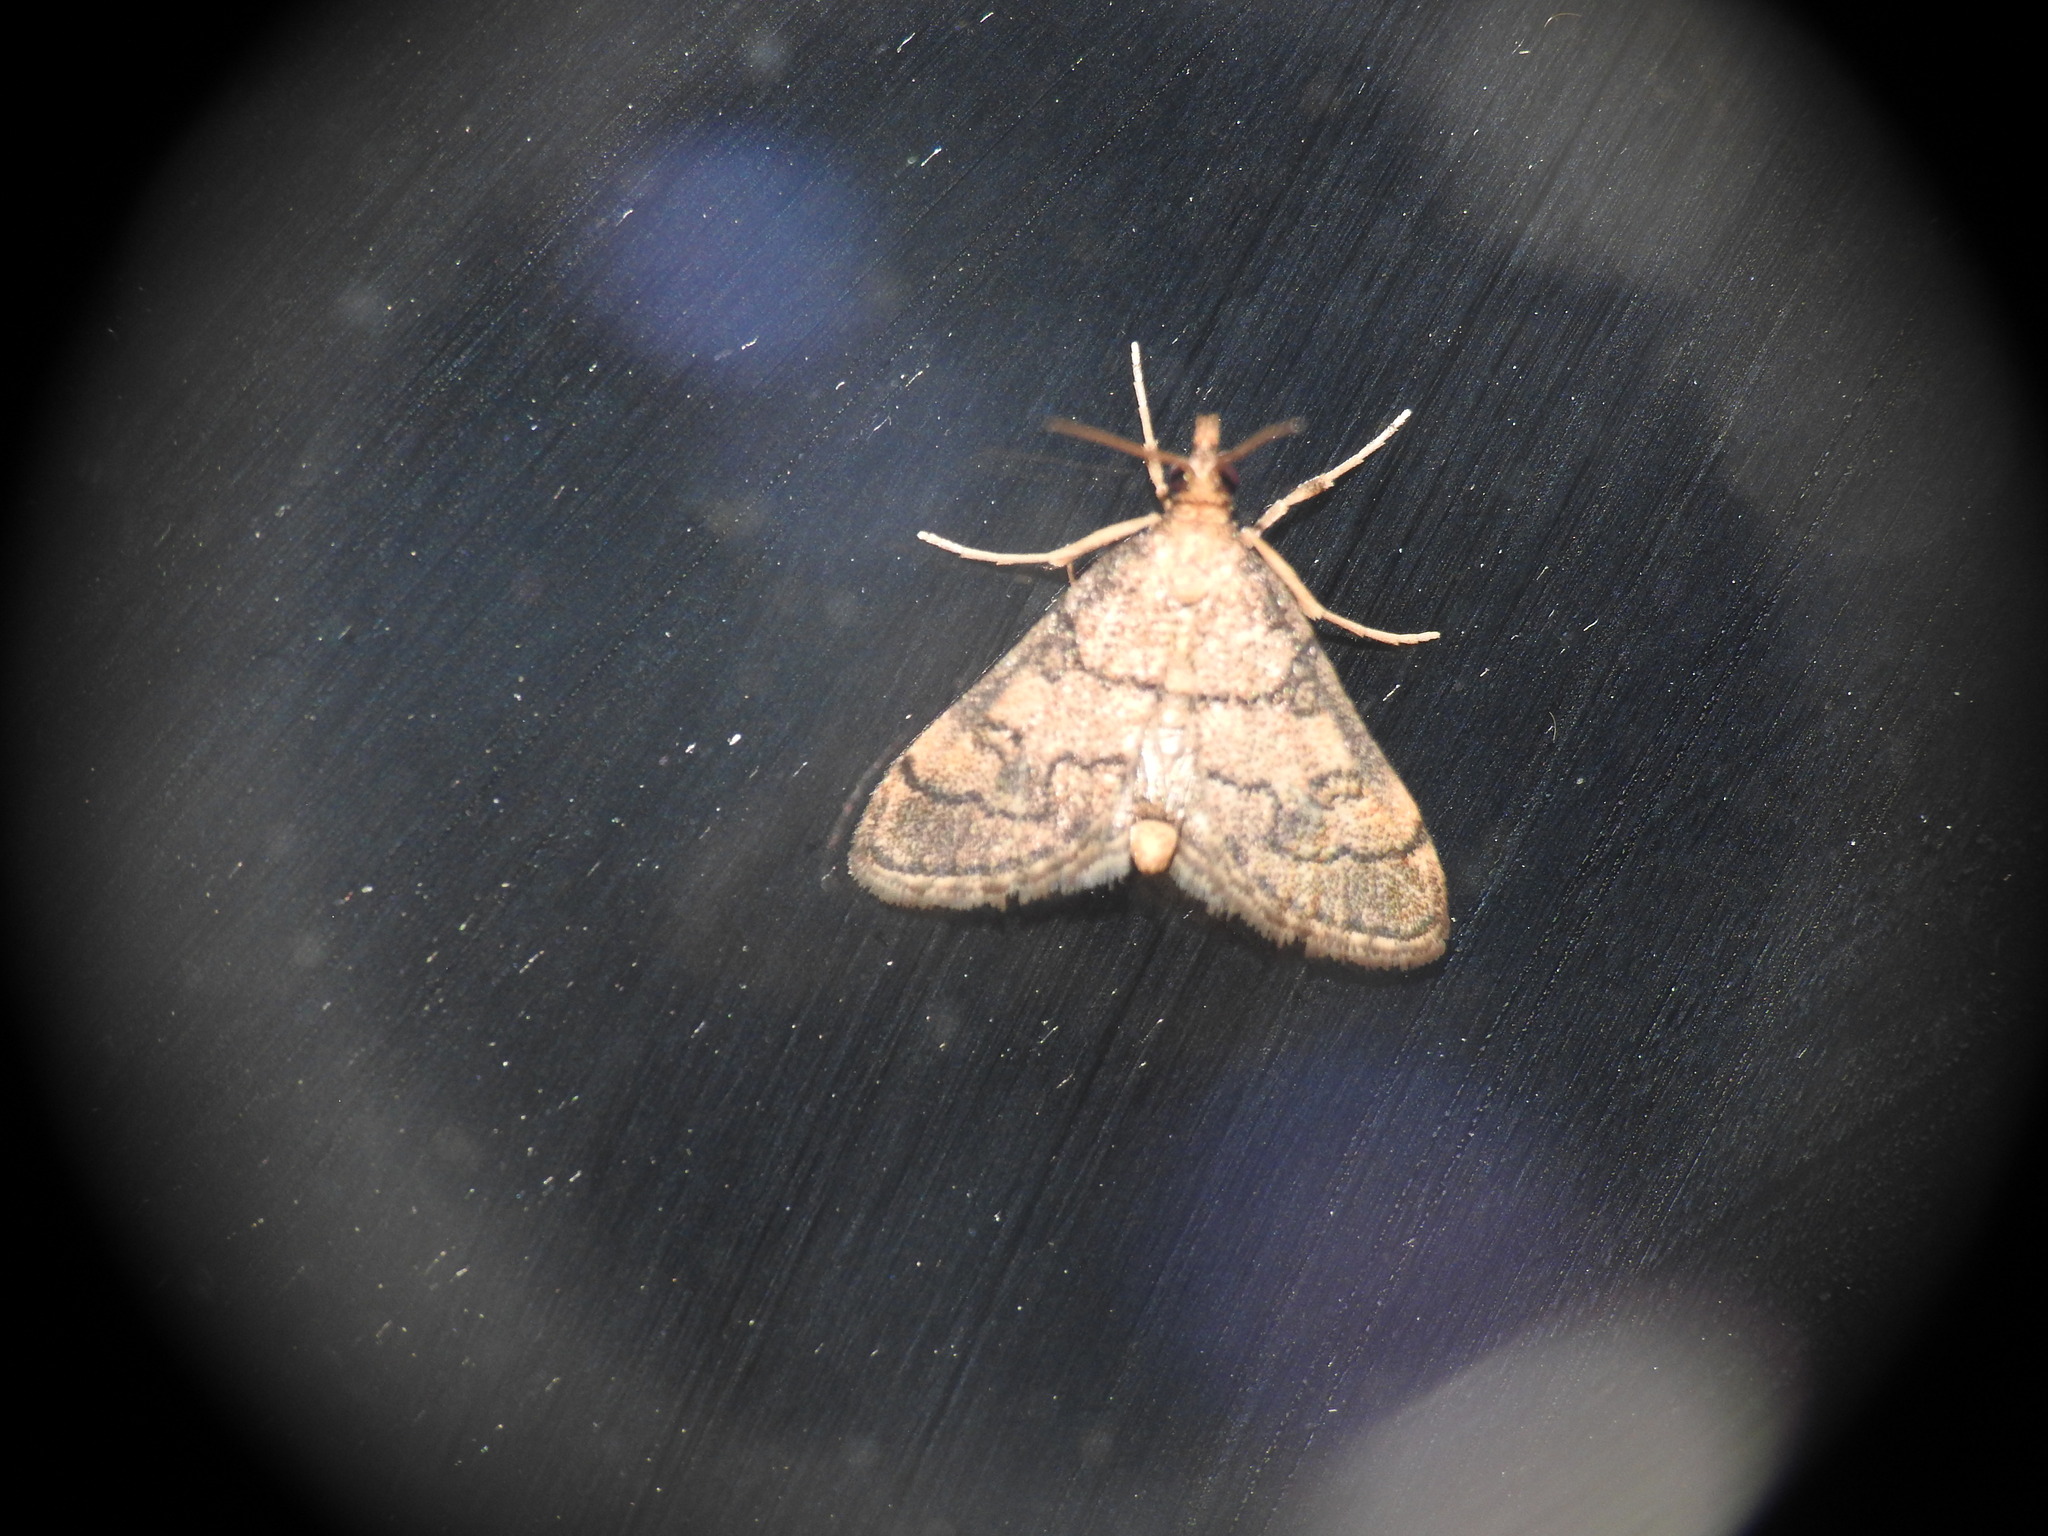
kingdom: Animalia
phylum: Arthropoda
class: Insecta
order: Lepidoptera
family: Crambidae
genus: Metasia
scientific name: Metasia cuencalis
